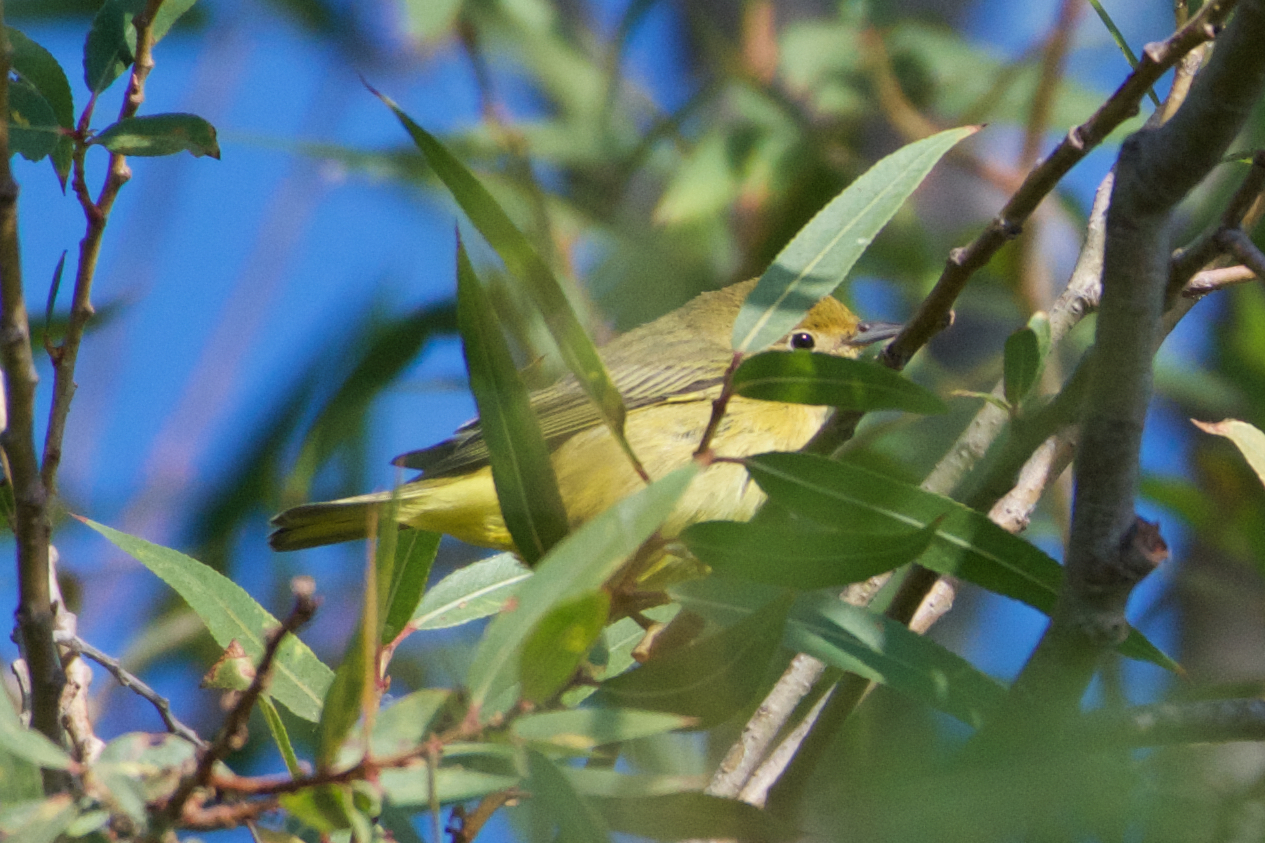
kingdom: Animalia
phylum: Chordata
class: Aves
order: Passeriformes
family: Parulidae
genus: Setophaga
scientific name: Setophaga petechia
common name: Yellow warbler
